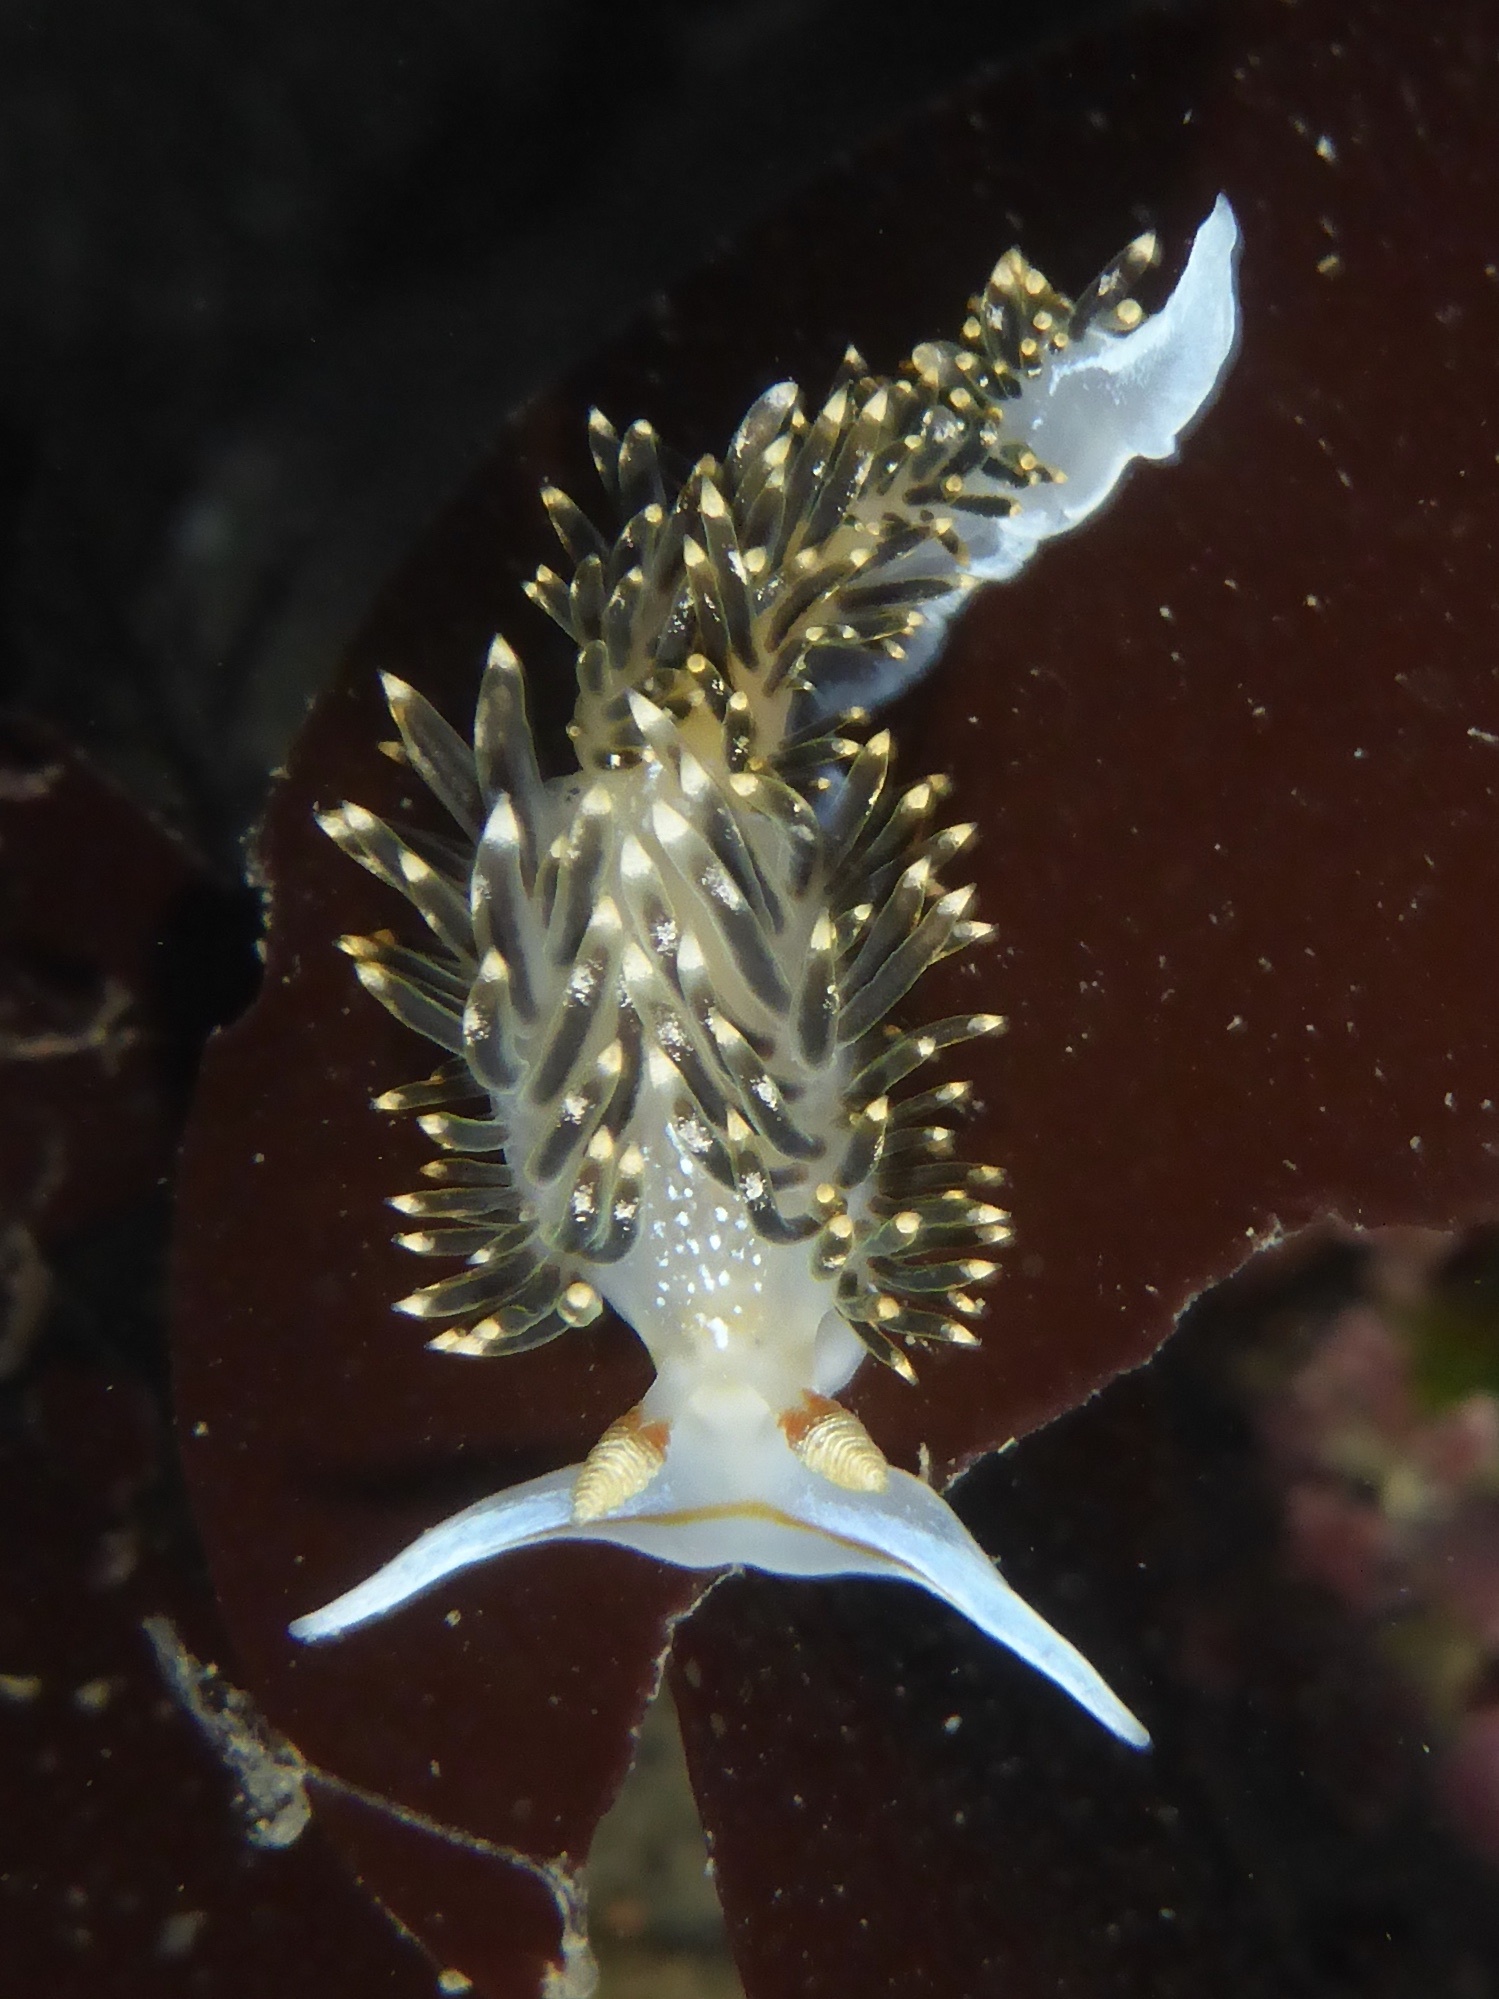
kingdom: Animalia
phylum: Mollusca
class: Gastropoda
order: Nudibranchia
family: Facelinidae
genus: Phidiana
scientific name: Phidiana hiltoni
